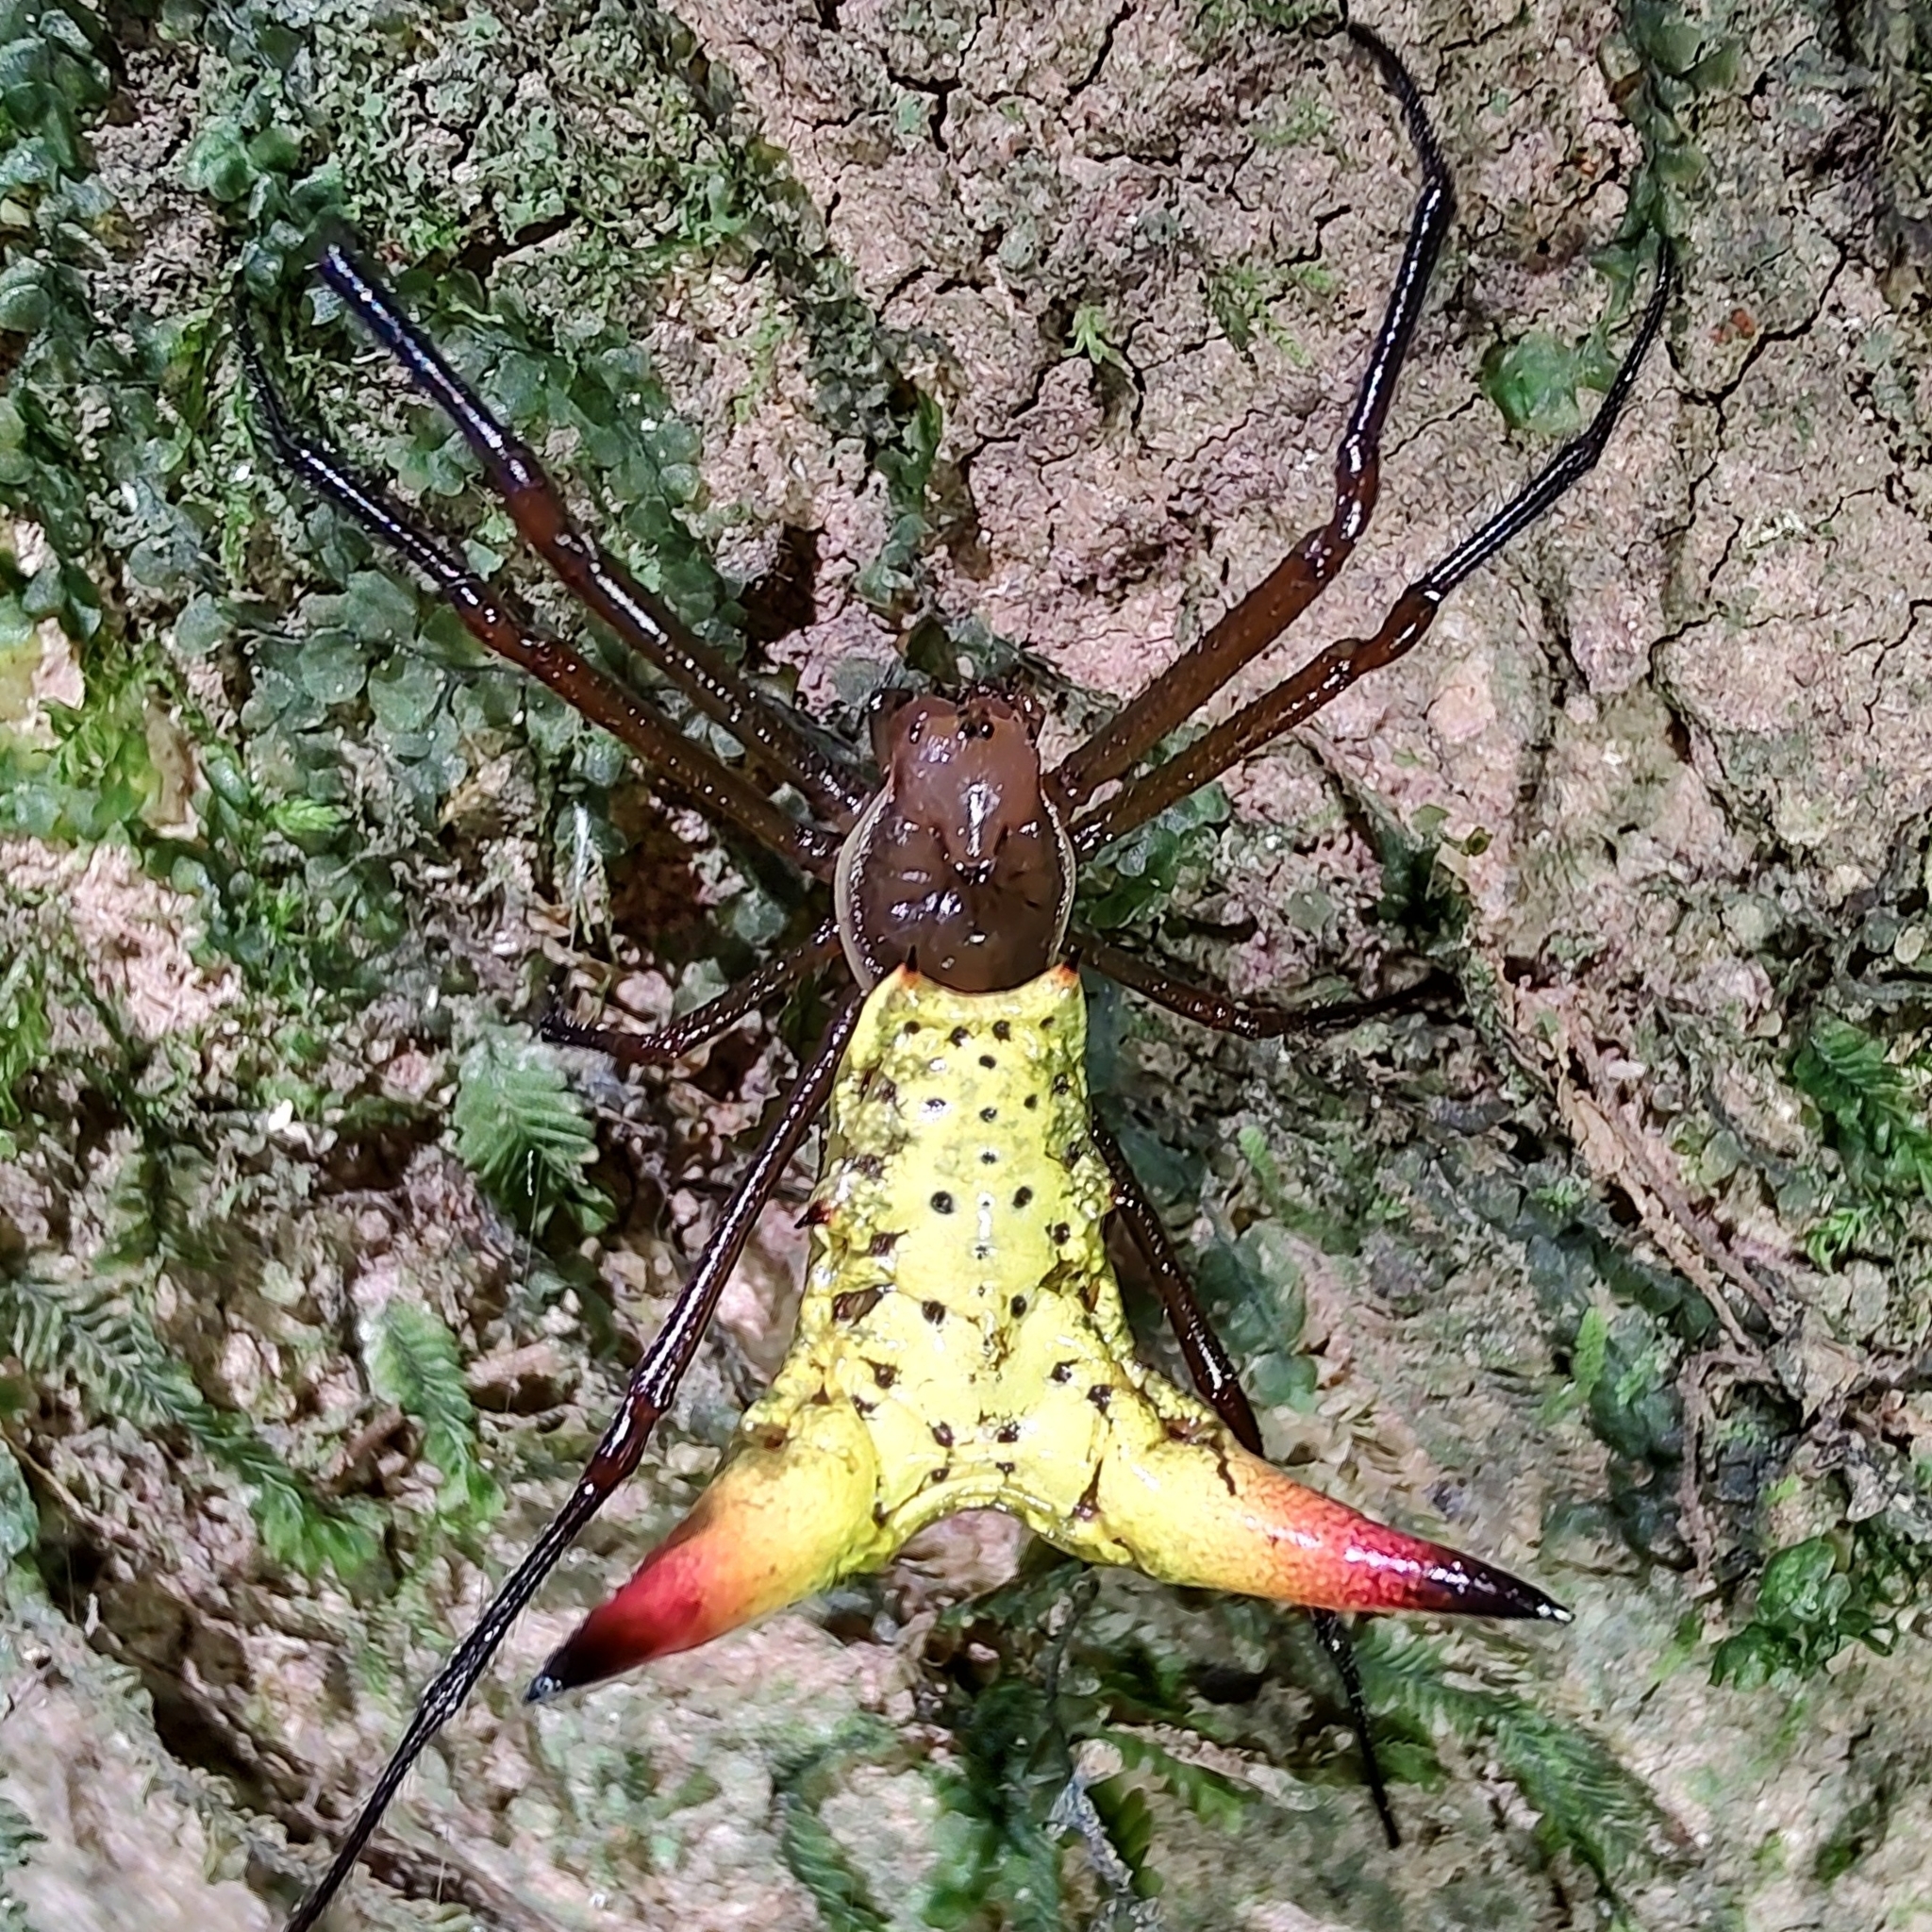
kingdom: Animalia
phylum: Arthropoda
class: Arachnida
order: Araneae
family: Araneidae
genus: Micrathena
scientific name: Micrathena crassispina
